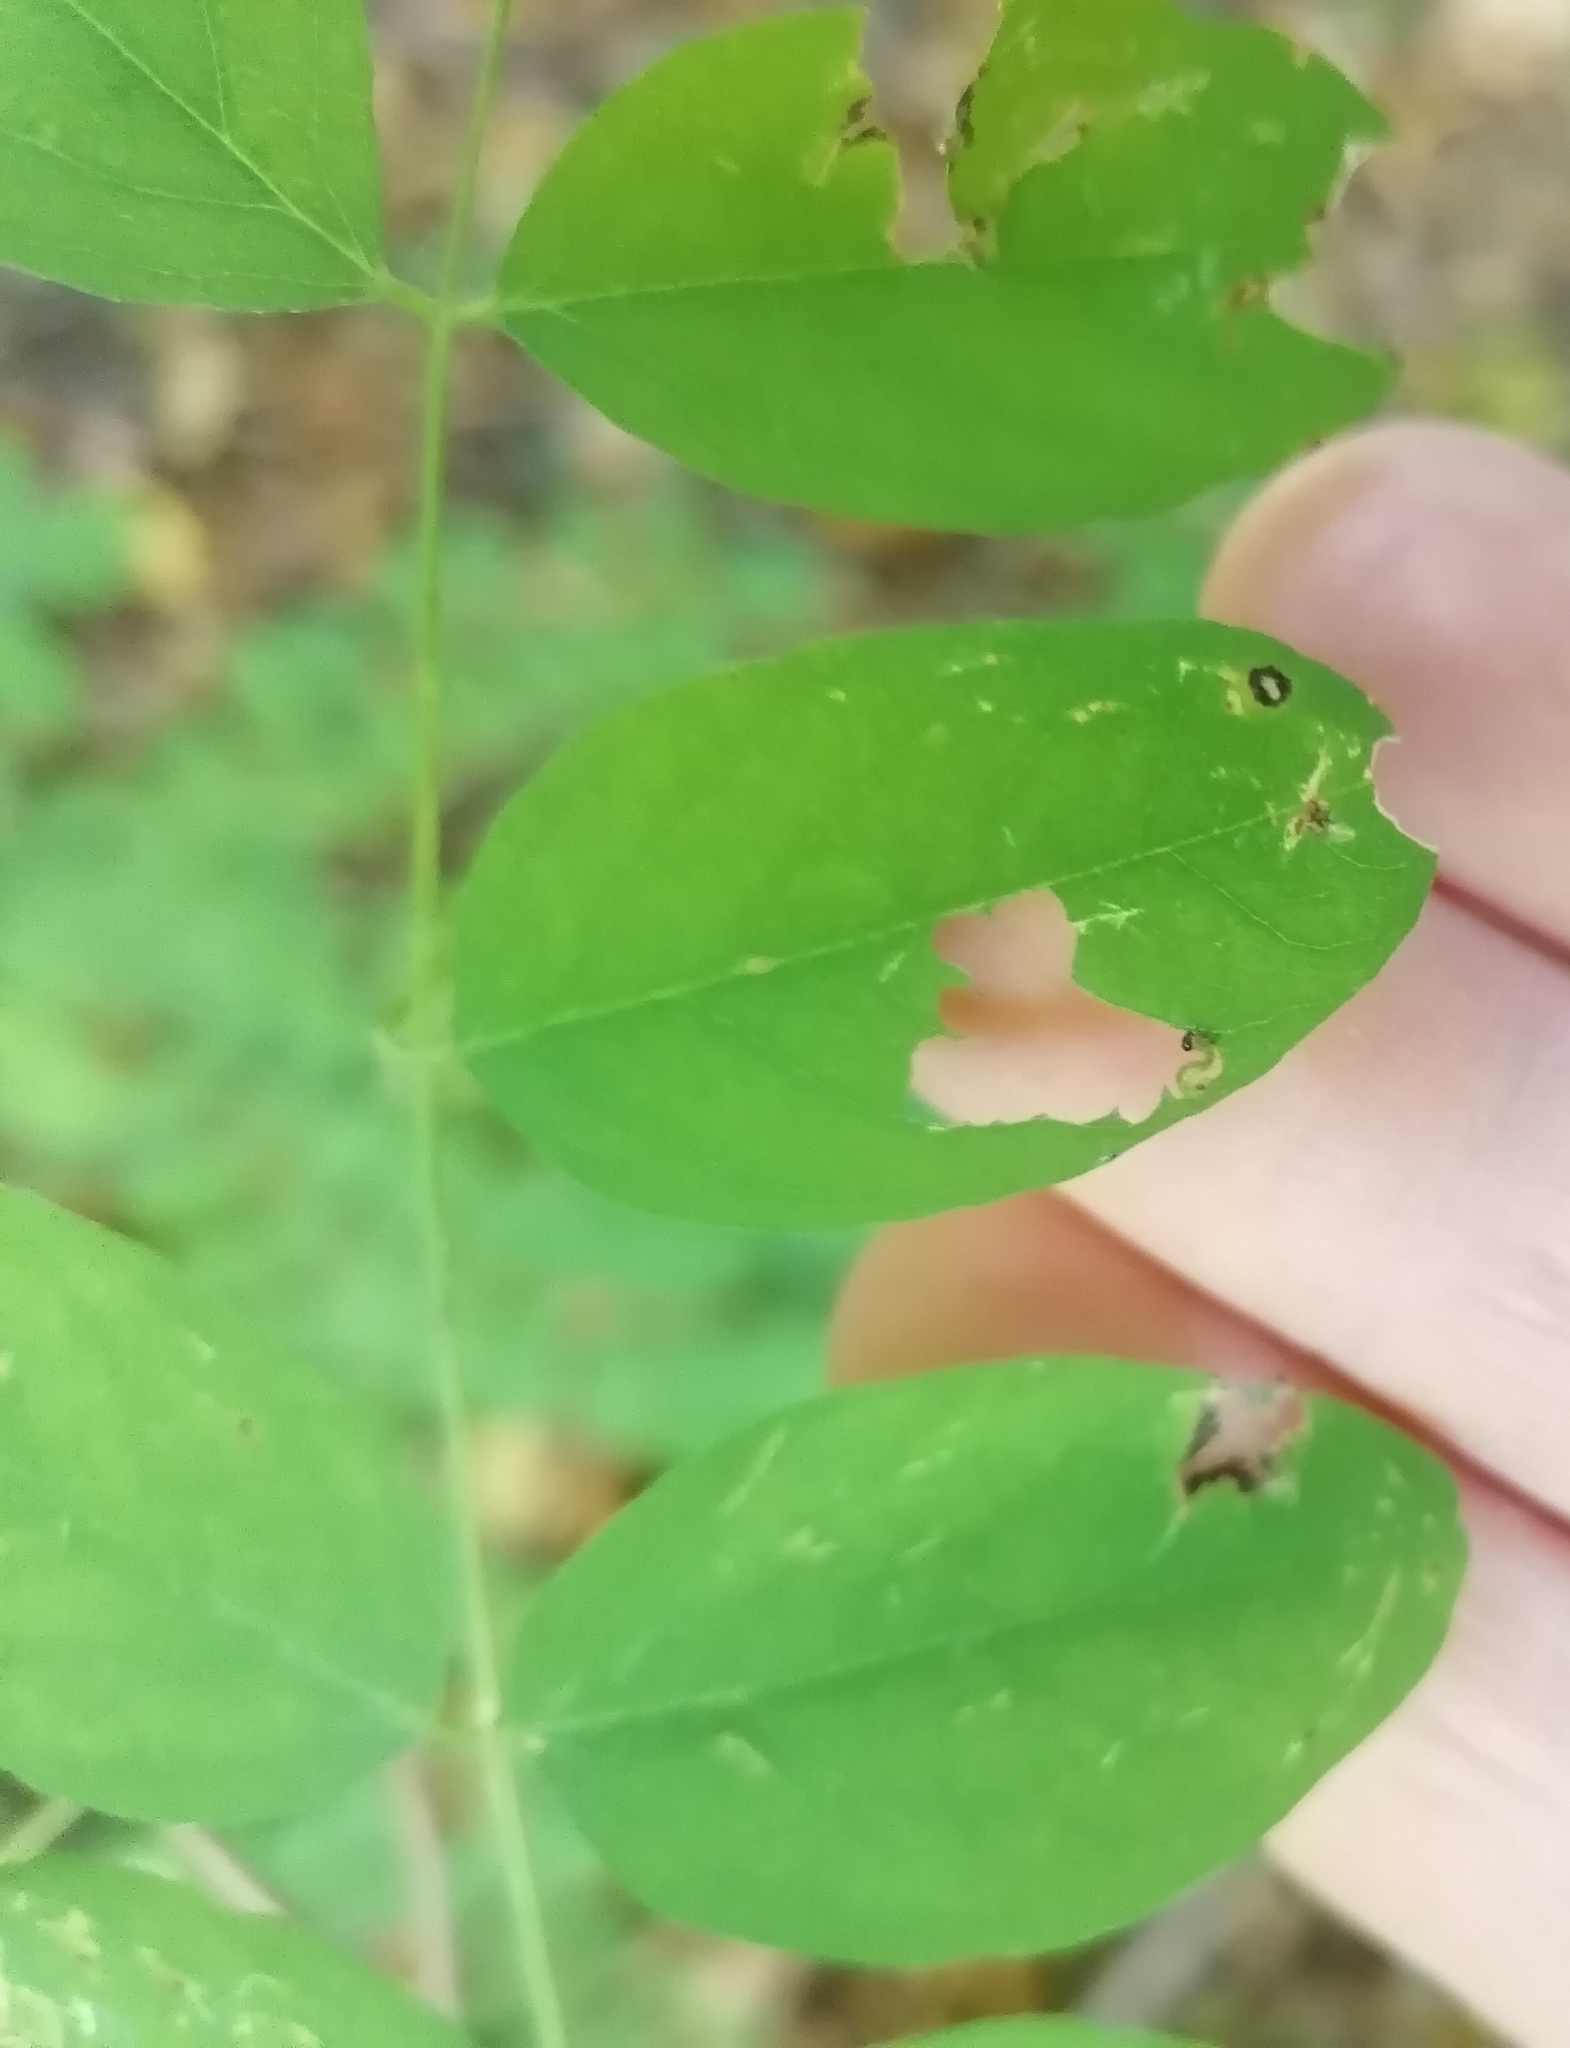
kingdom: Animalia
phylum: Arthropoda
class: Insecta
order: Hymenoptera
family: Tenthredinidae
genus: Euura
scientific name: Euura tibialis
